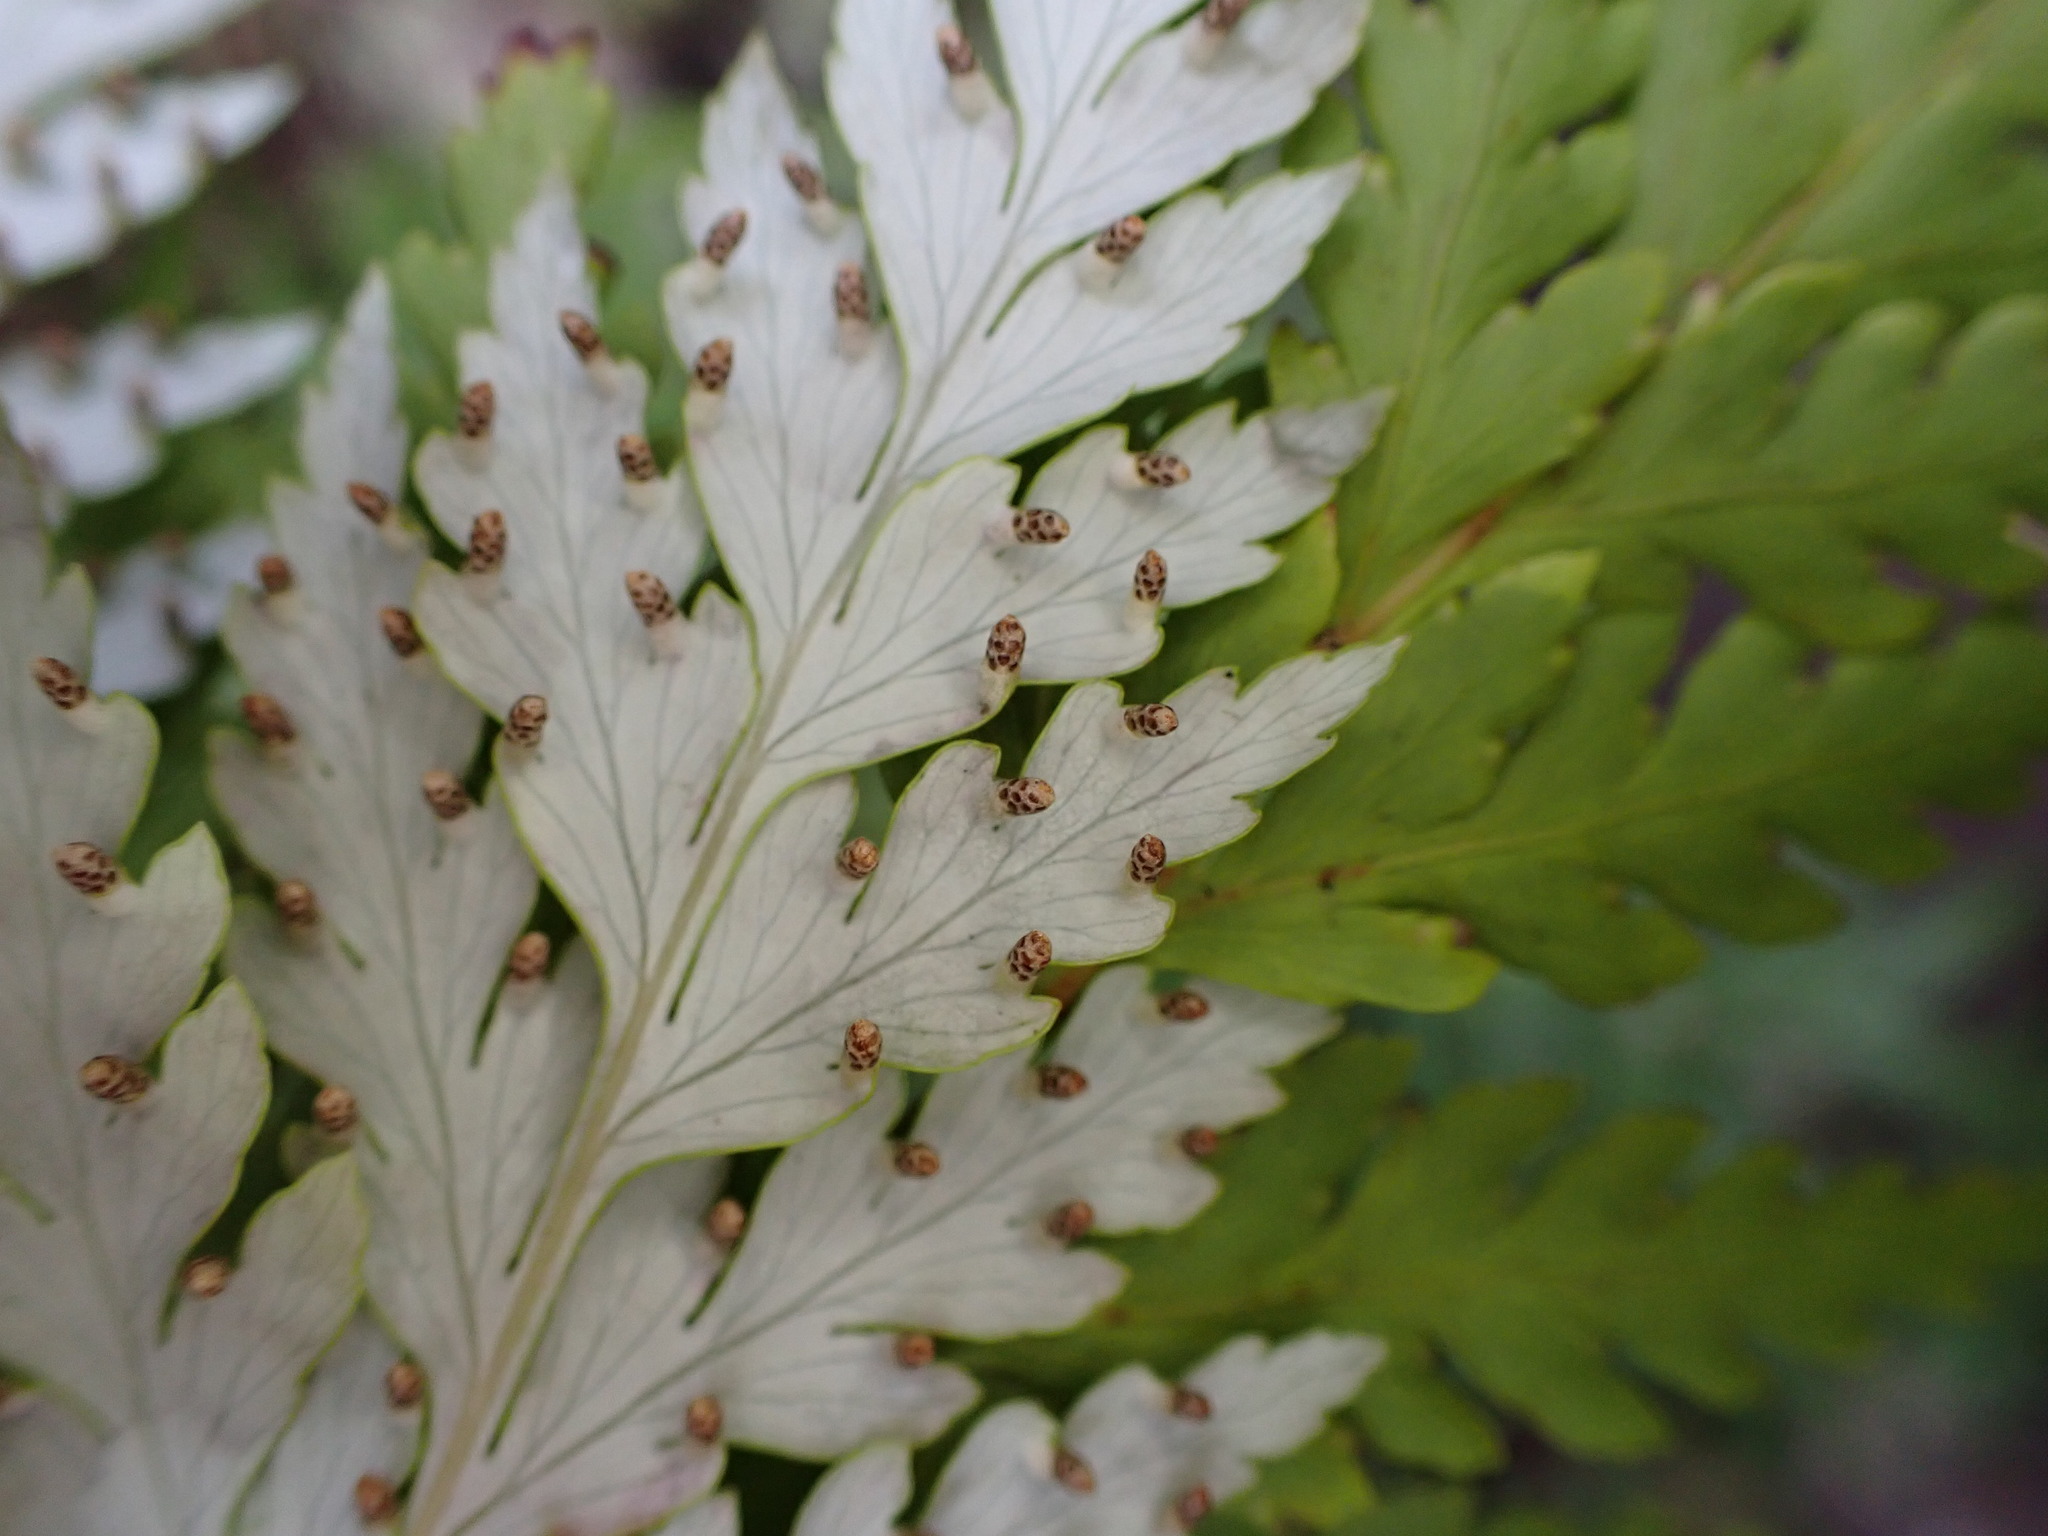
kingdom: Plantae
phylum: Tracheophyta
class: Polypodiopsida
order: Cyatheales
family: Loxsomataceae
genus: Loxsoma
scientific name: Loxsoma cunninghamii
